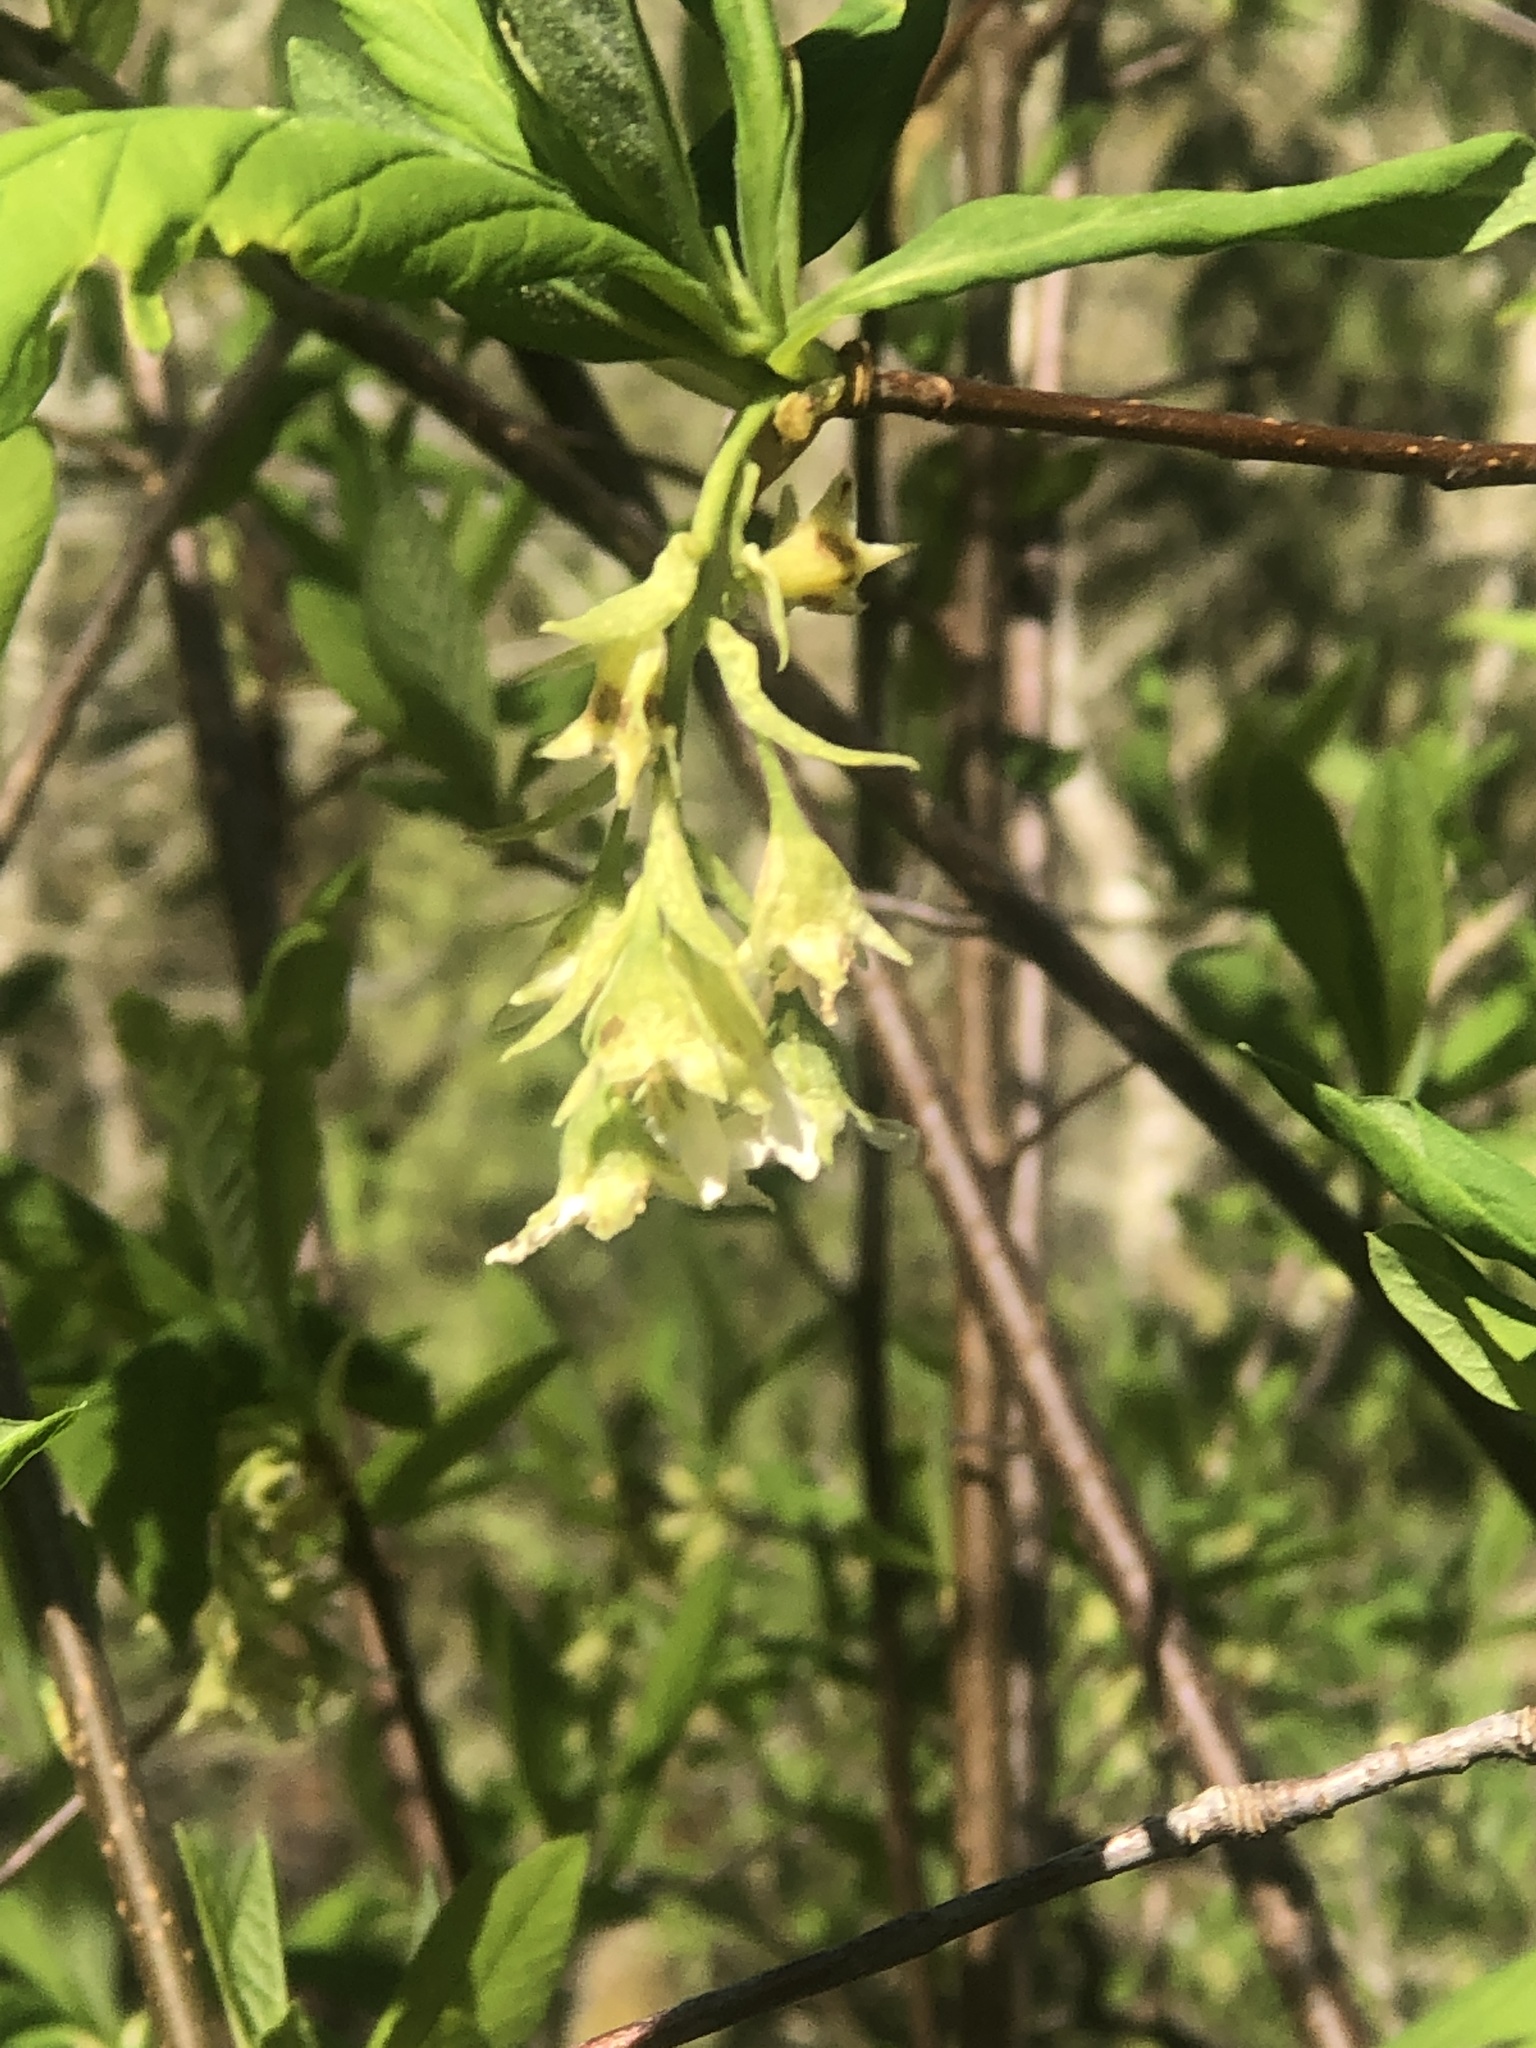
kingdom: Plantae
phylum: Tracheophyta
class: Magnoliopsida
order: Rosales
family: Rosaceae
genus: Oemleria
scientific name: Oemleria cerasiformis
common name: Osoberry
